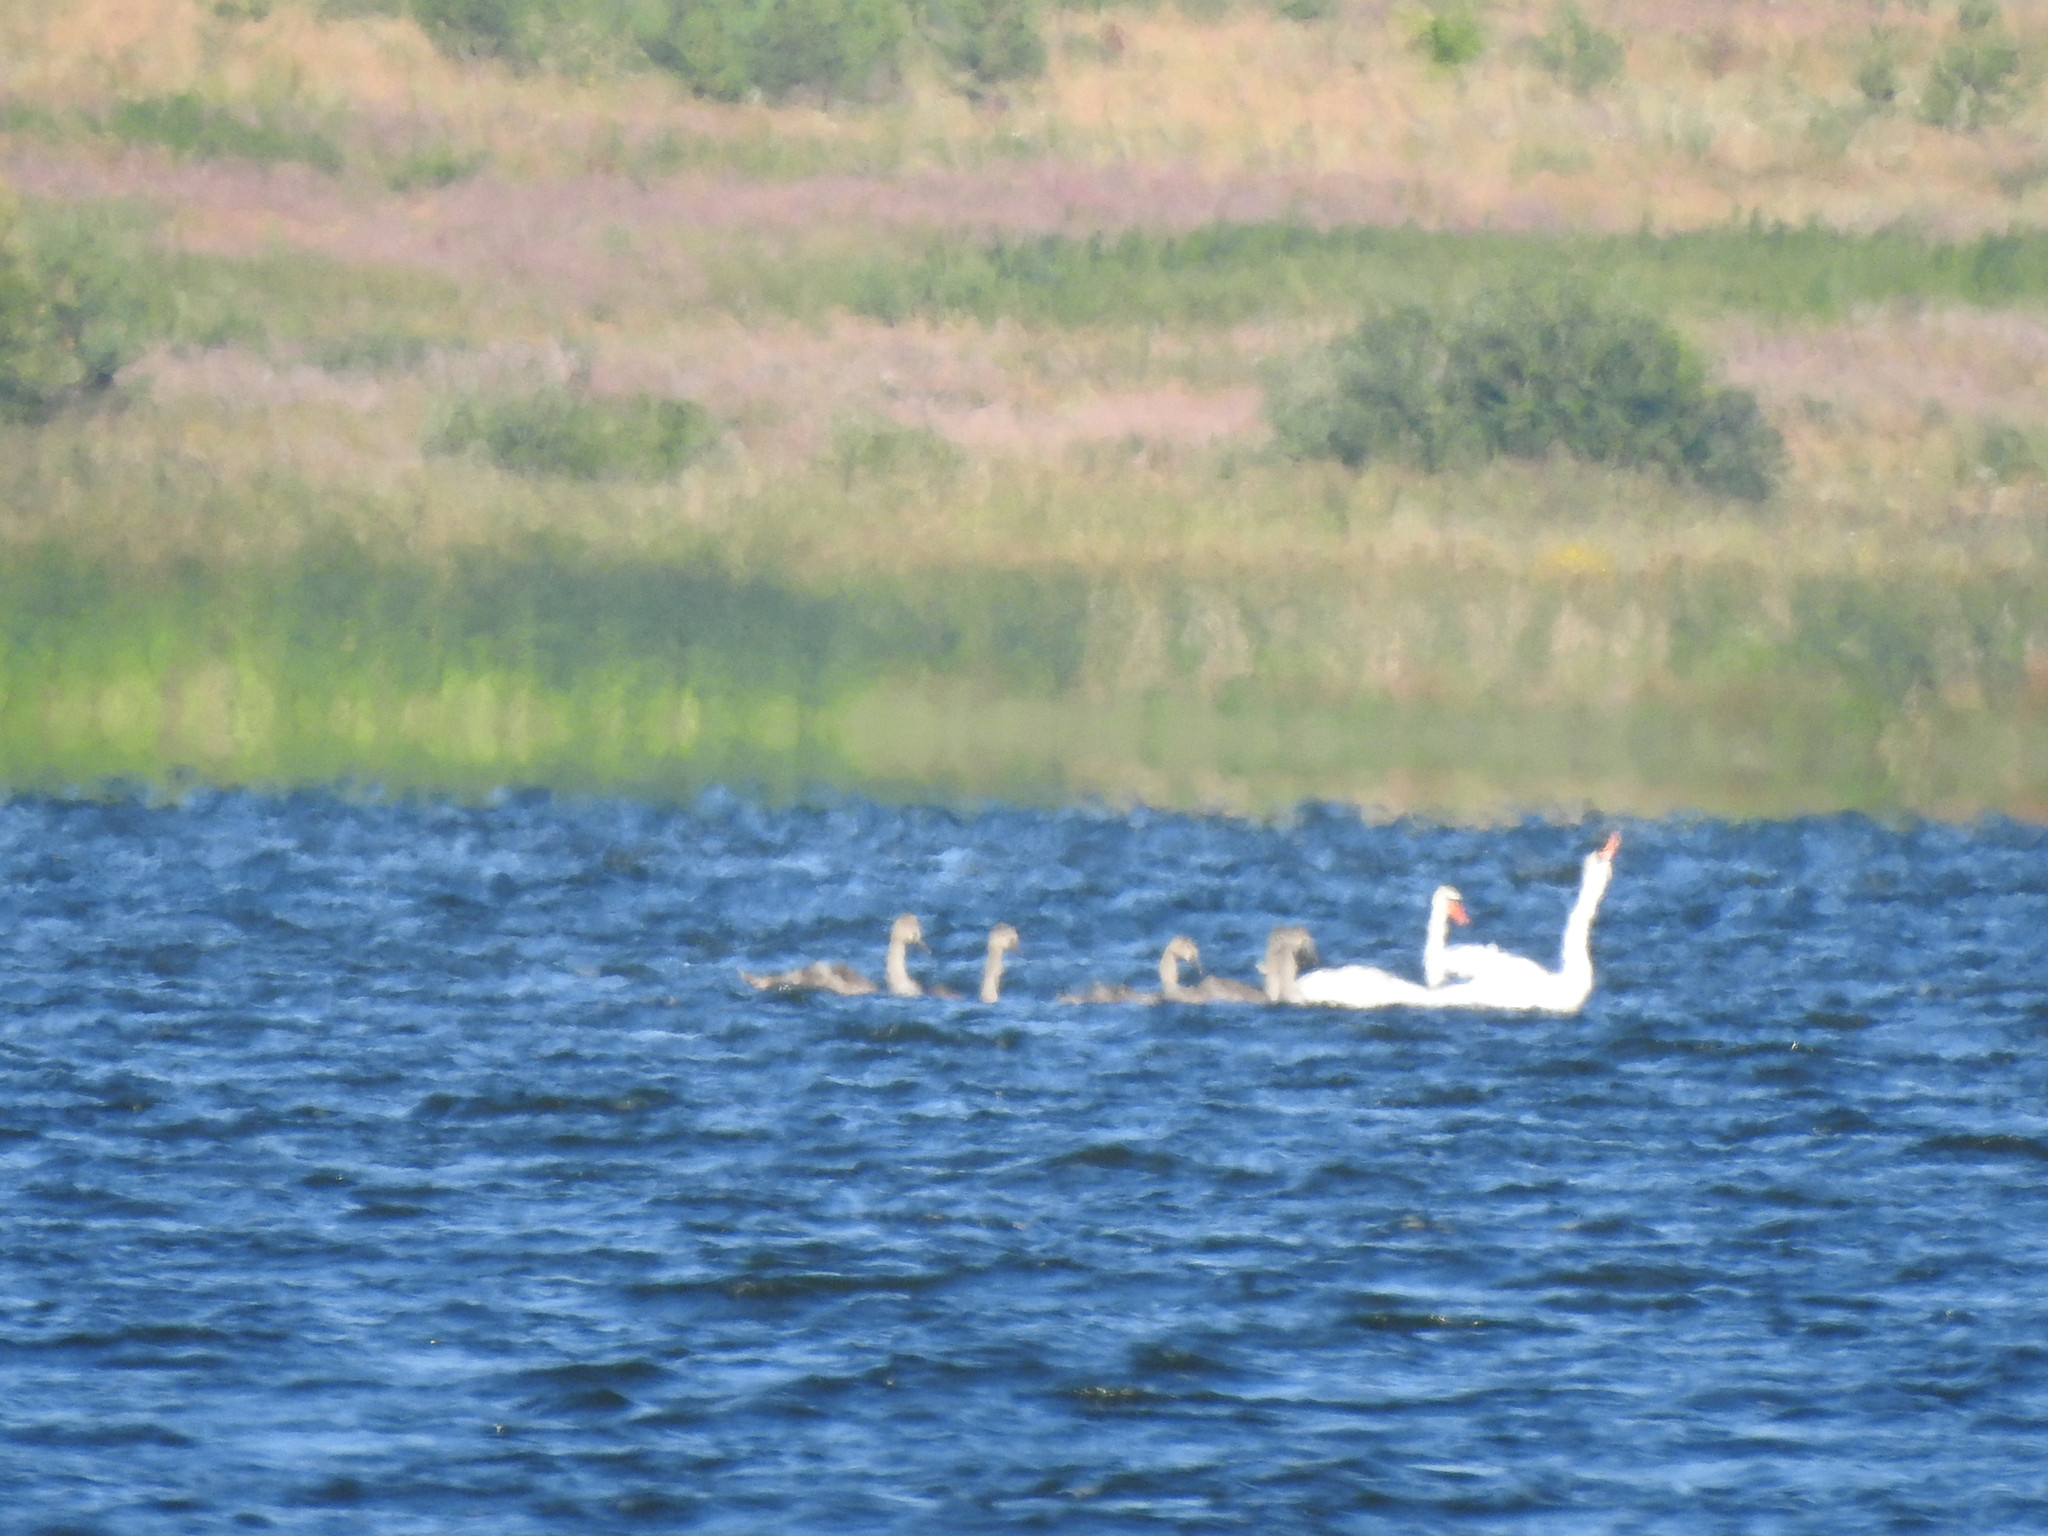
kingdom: Animalia
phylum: Chordata
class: Aves
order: Anseriformes
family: Anatidae
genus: Cygnus
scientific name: Cygnus olor
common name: Mute swan
